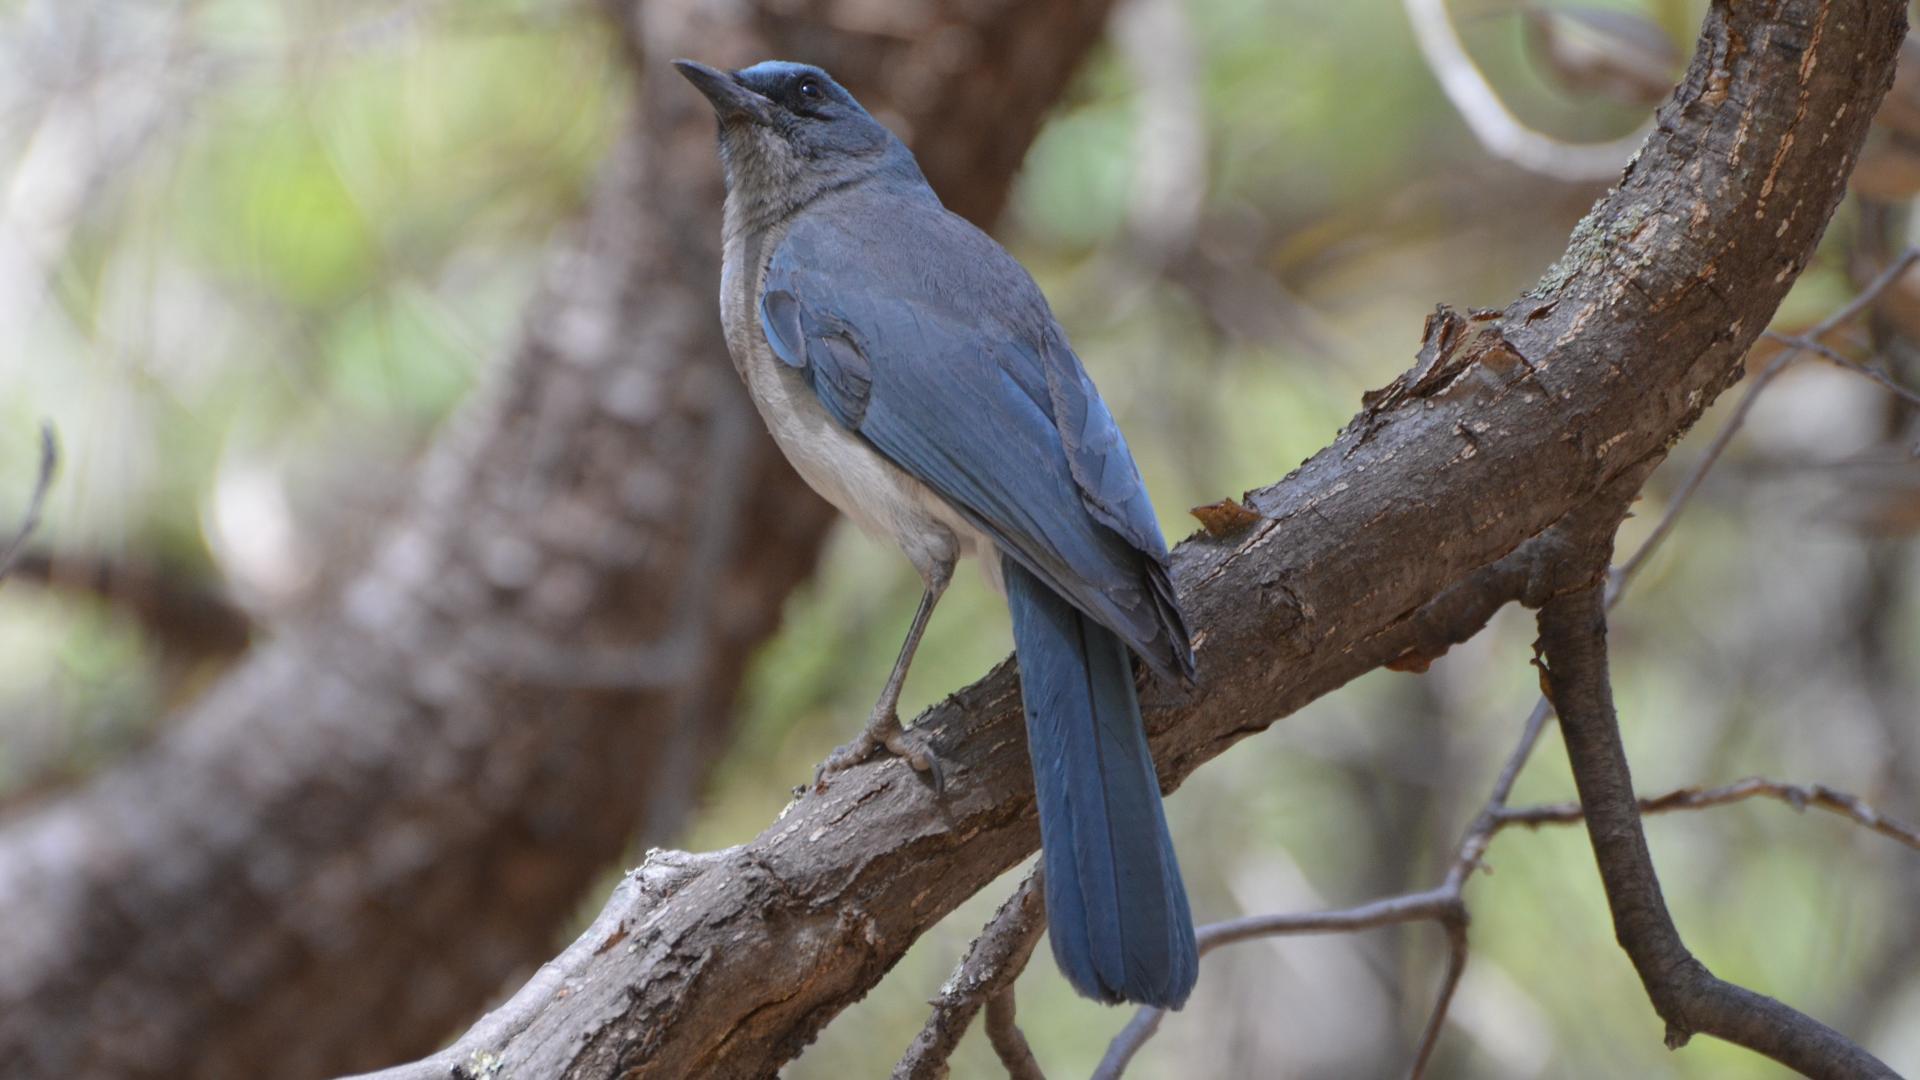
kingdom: Animalia
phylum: Chordata
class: Aves
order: Passeriformes
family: Corvidae
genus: Aphelocoma
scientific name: Aphelocoma wollweberi
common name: Mexican jay
